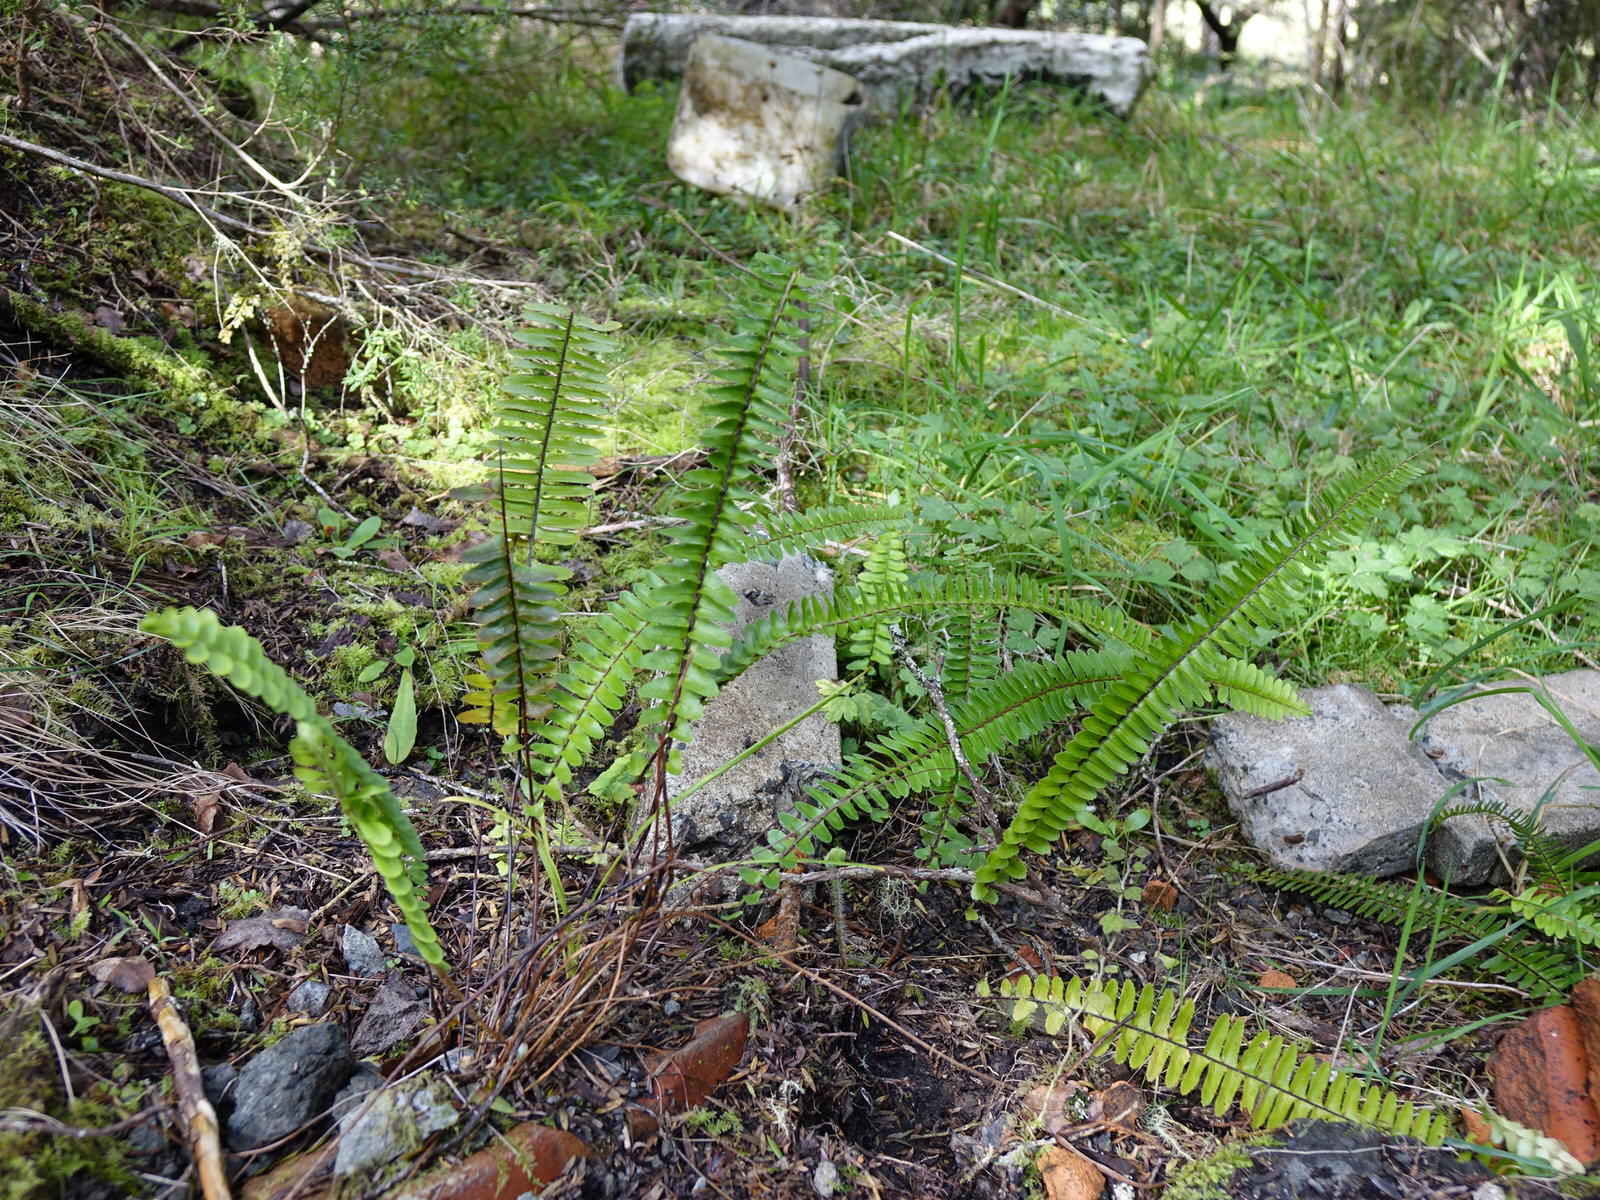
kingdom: Plantae
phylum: Tracheophyta
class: Polypodiopsida
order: Polypodiales
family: Nephrolepidaceae
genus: Nephrolepis
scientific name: Nephrolepis cordifolia
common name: Narrow swordfern
